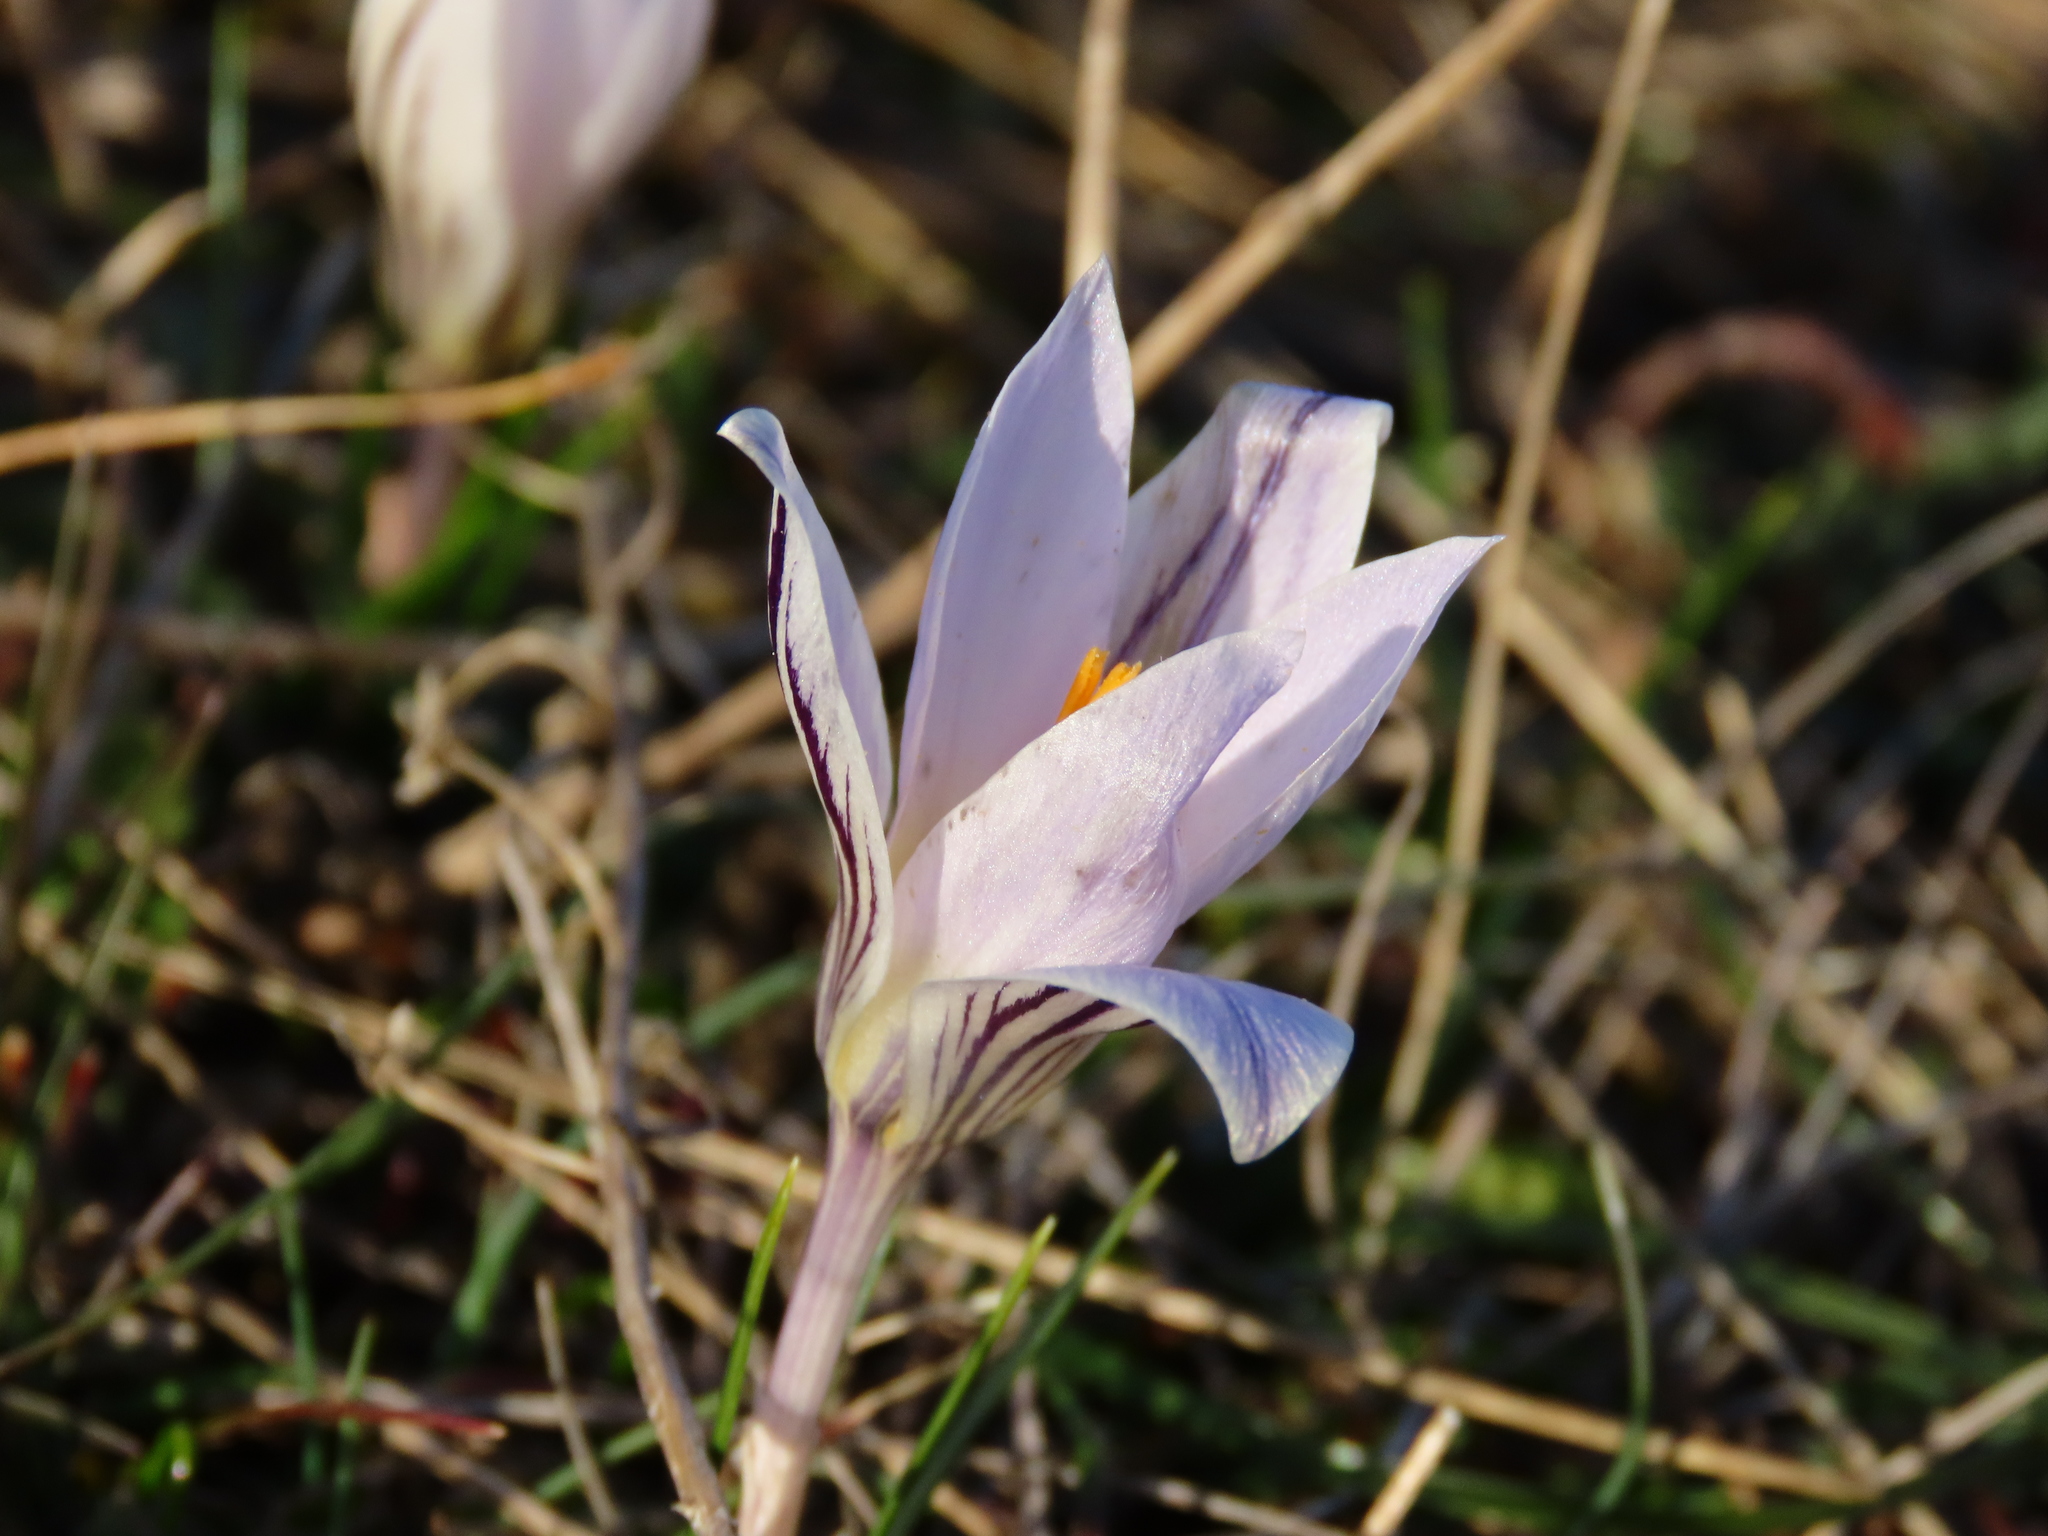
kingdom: Plantae
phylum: Tracheophyta
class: Liliopsida
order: Asparagales
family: Iridaceae
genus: Crocus
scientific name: Crocus variegatus
